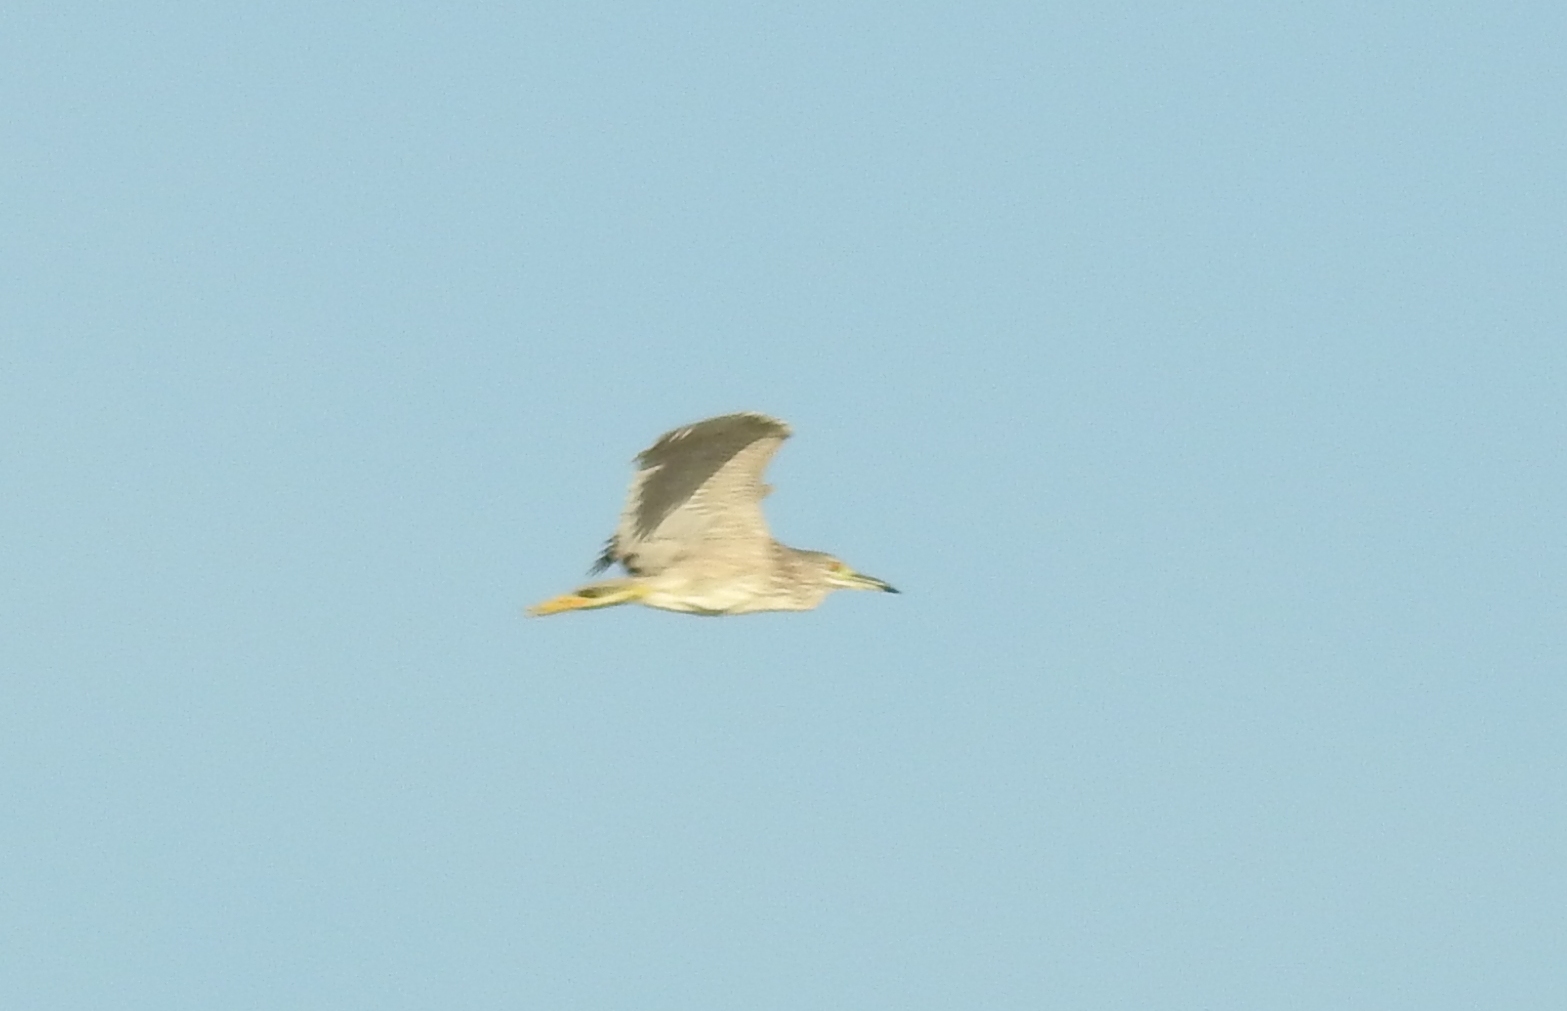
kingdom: Animalia
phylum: Chordata
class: Aves
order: Pelecaniformes
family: Ardeidae
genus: Nycticorax
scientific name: Nycticorax nycticorax
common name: Black-crowned night heron
